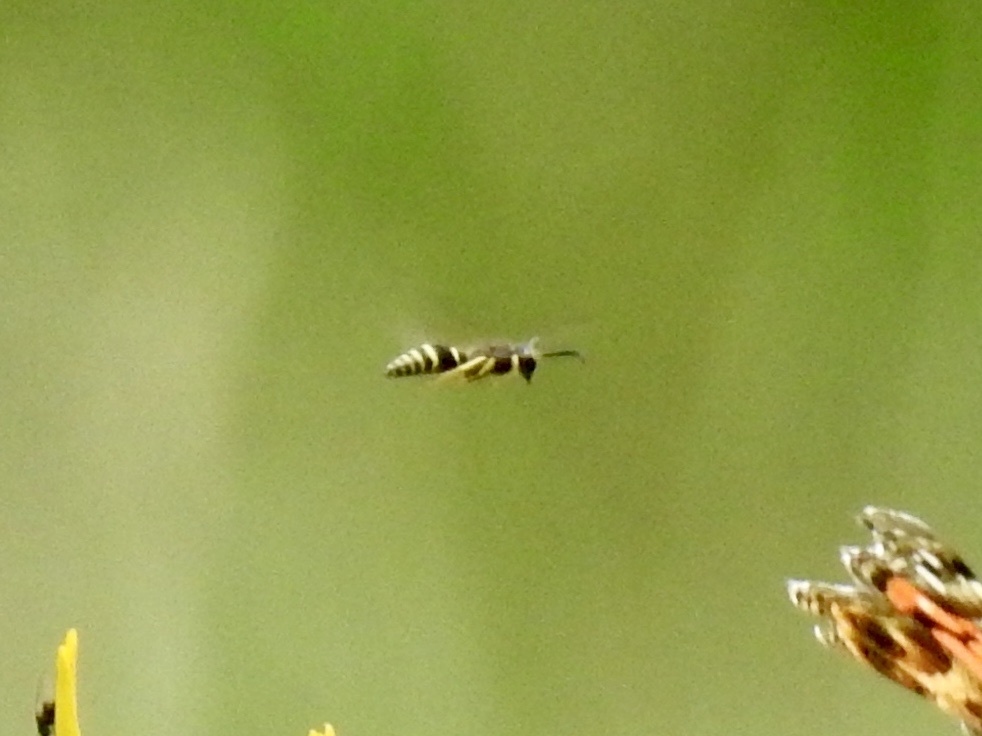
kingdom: Animalia
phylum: Arthropoda
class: Insecta
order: Hymenoptera
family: Vespidae
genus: Ancistrocerus
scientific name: Ancistrocerus
